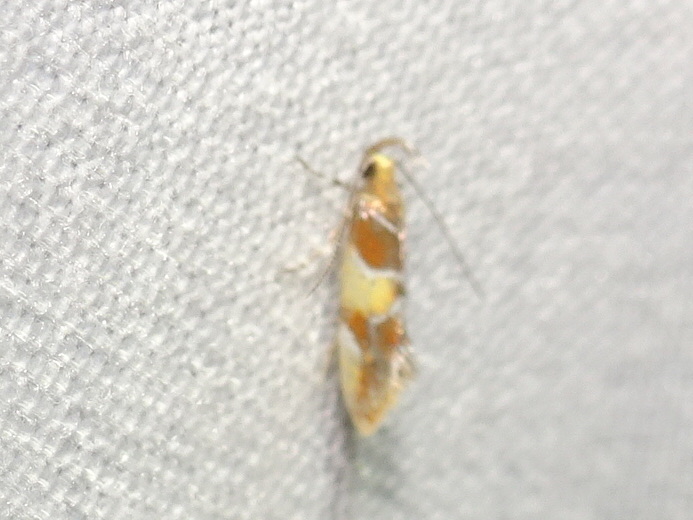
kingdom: Animalia
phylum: Arthropoda
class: Insecta
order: Lepidoptera
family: Oecophoridae
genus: Callima
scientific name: Callima argenticinctella
